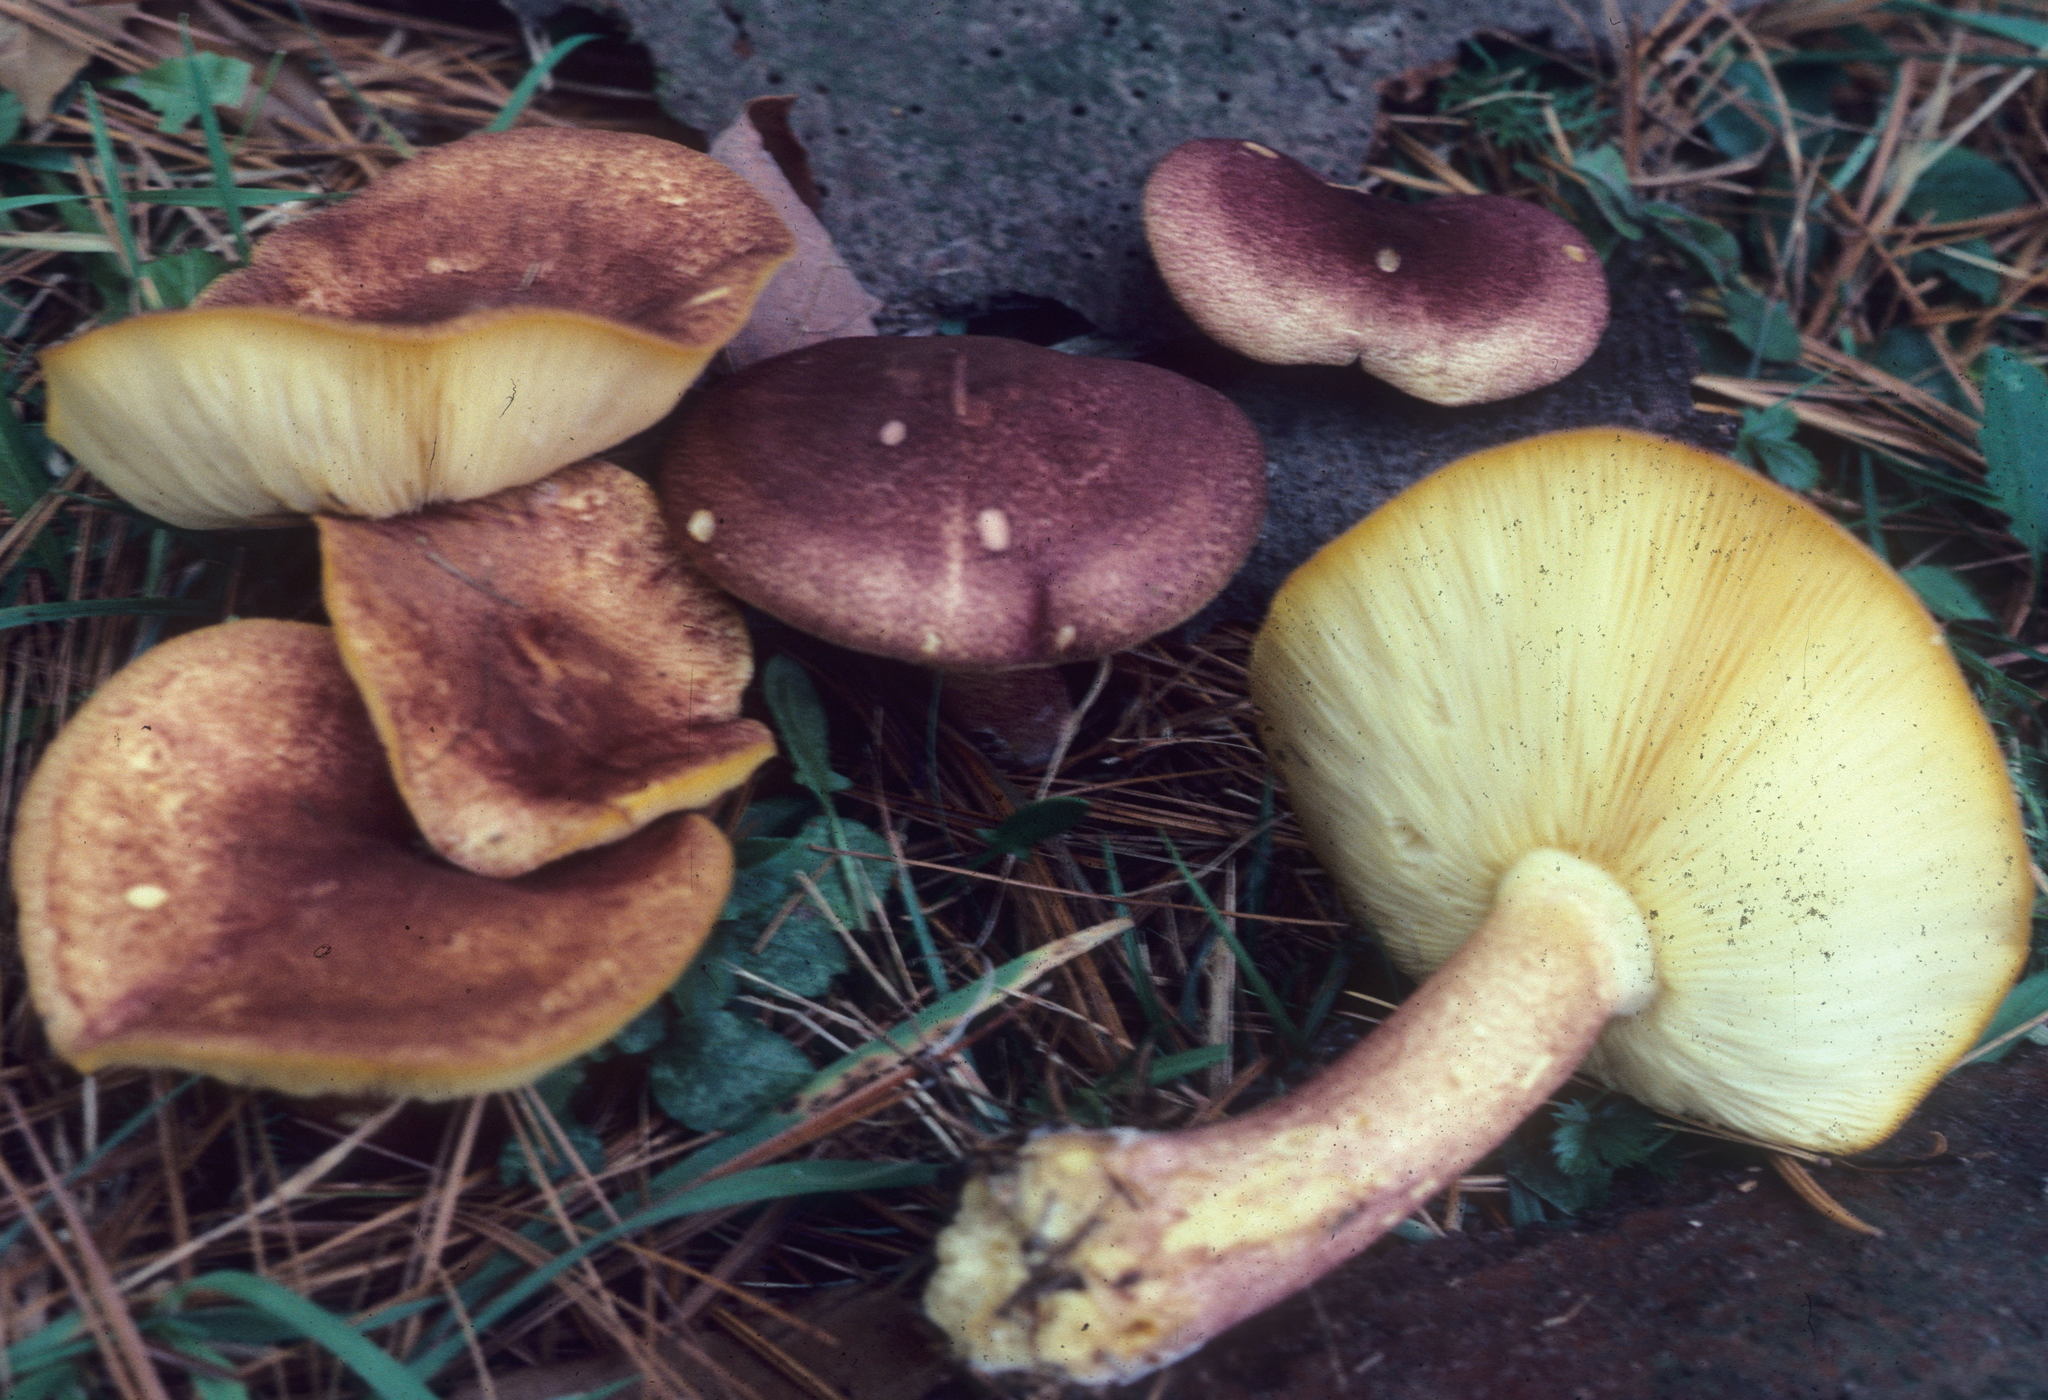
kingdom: Fungi
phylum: Basidiomycota
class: Agaricomycetes
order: Agaricales
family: Tricholomataceae
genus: Tricholomopsis
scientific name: Tricholomopsis rutilans
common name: Plums and custard
